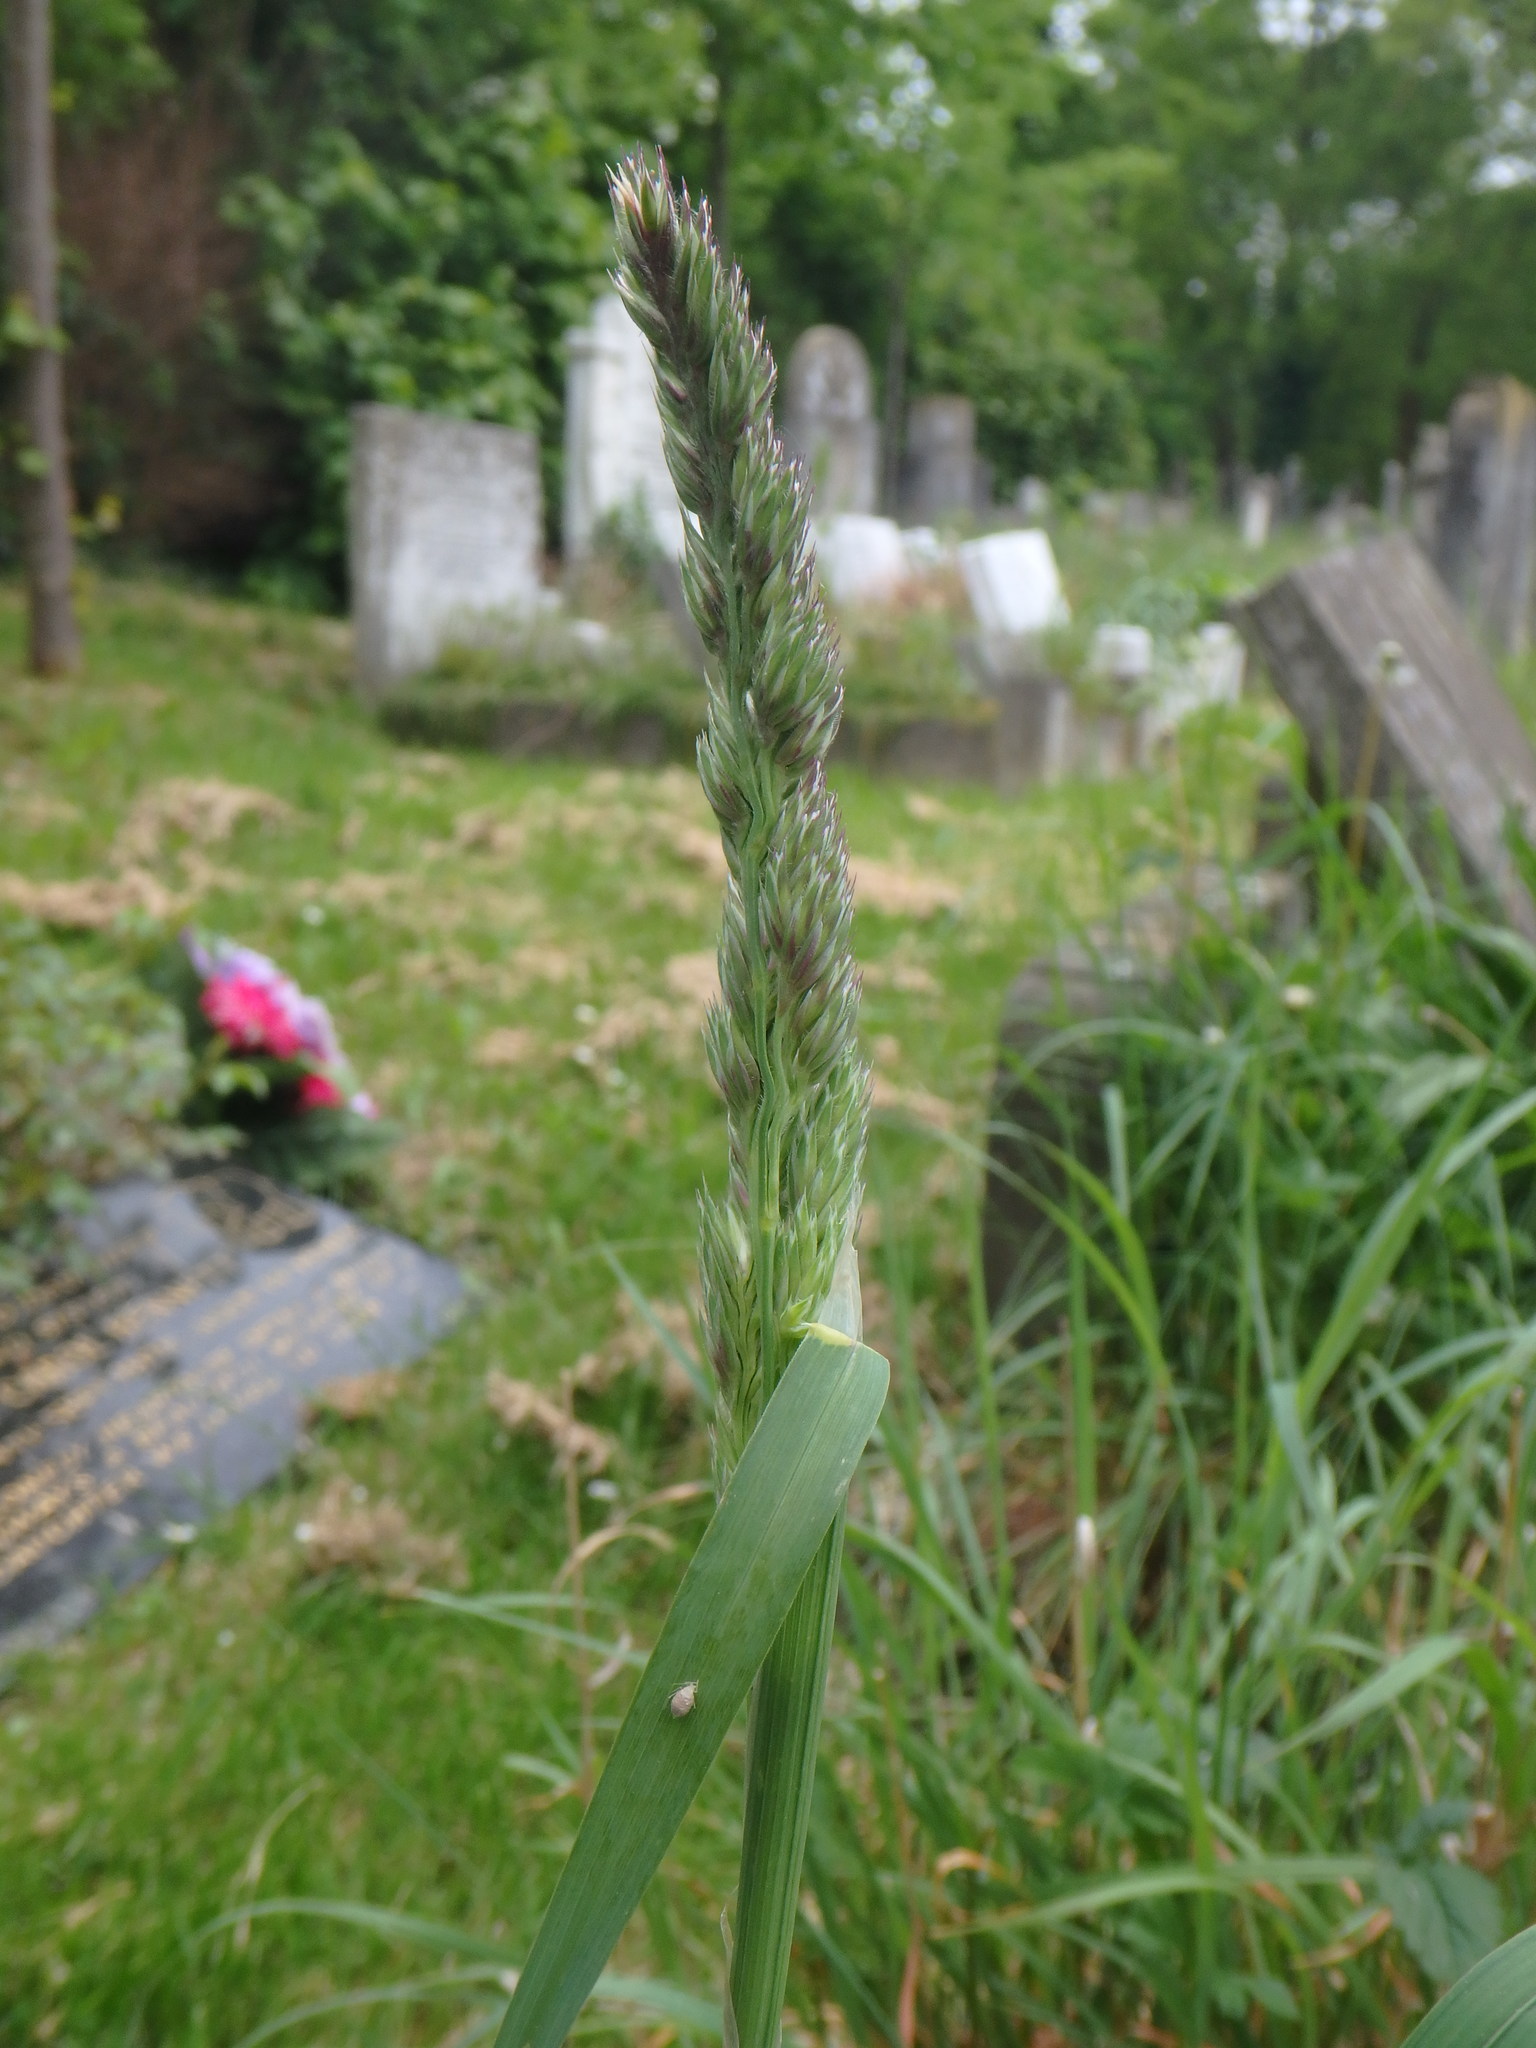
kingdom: Plantae
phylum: Tracheophyta
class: Liliopsida
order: Poales
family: Poaceae
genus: Dactylis
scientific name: Dactylis glomerata
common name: Orchardgrass
